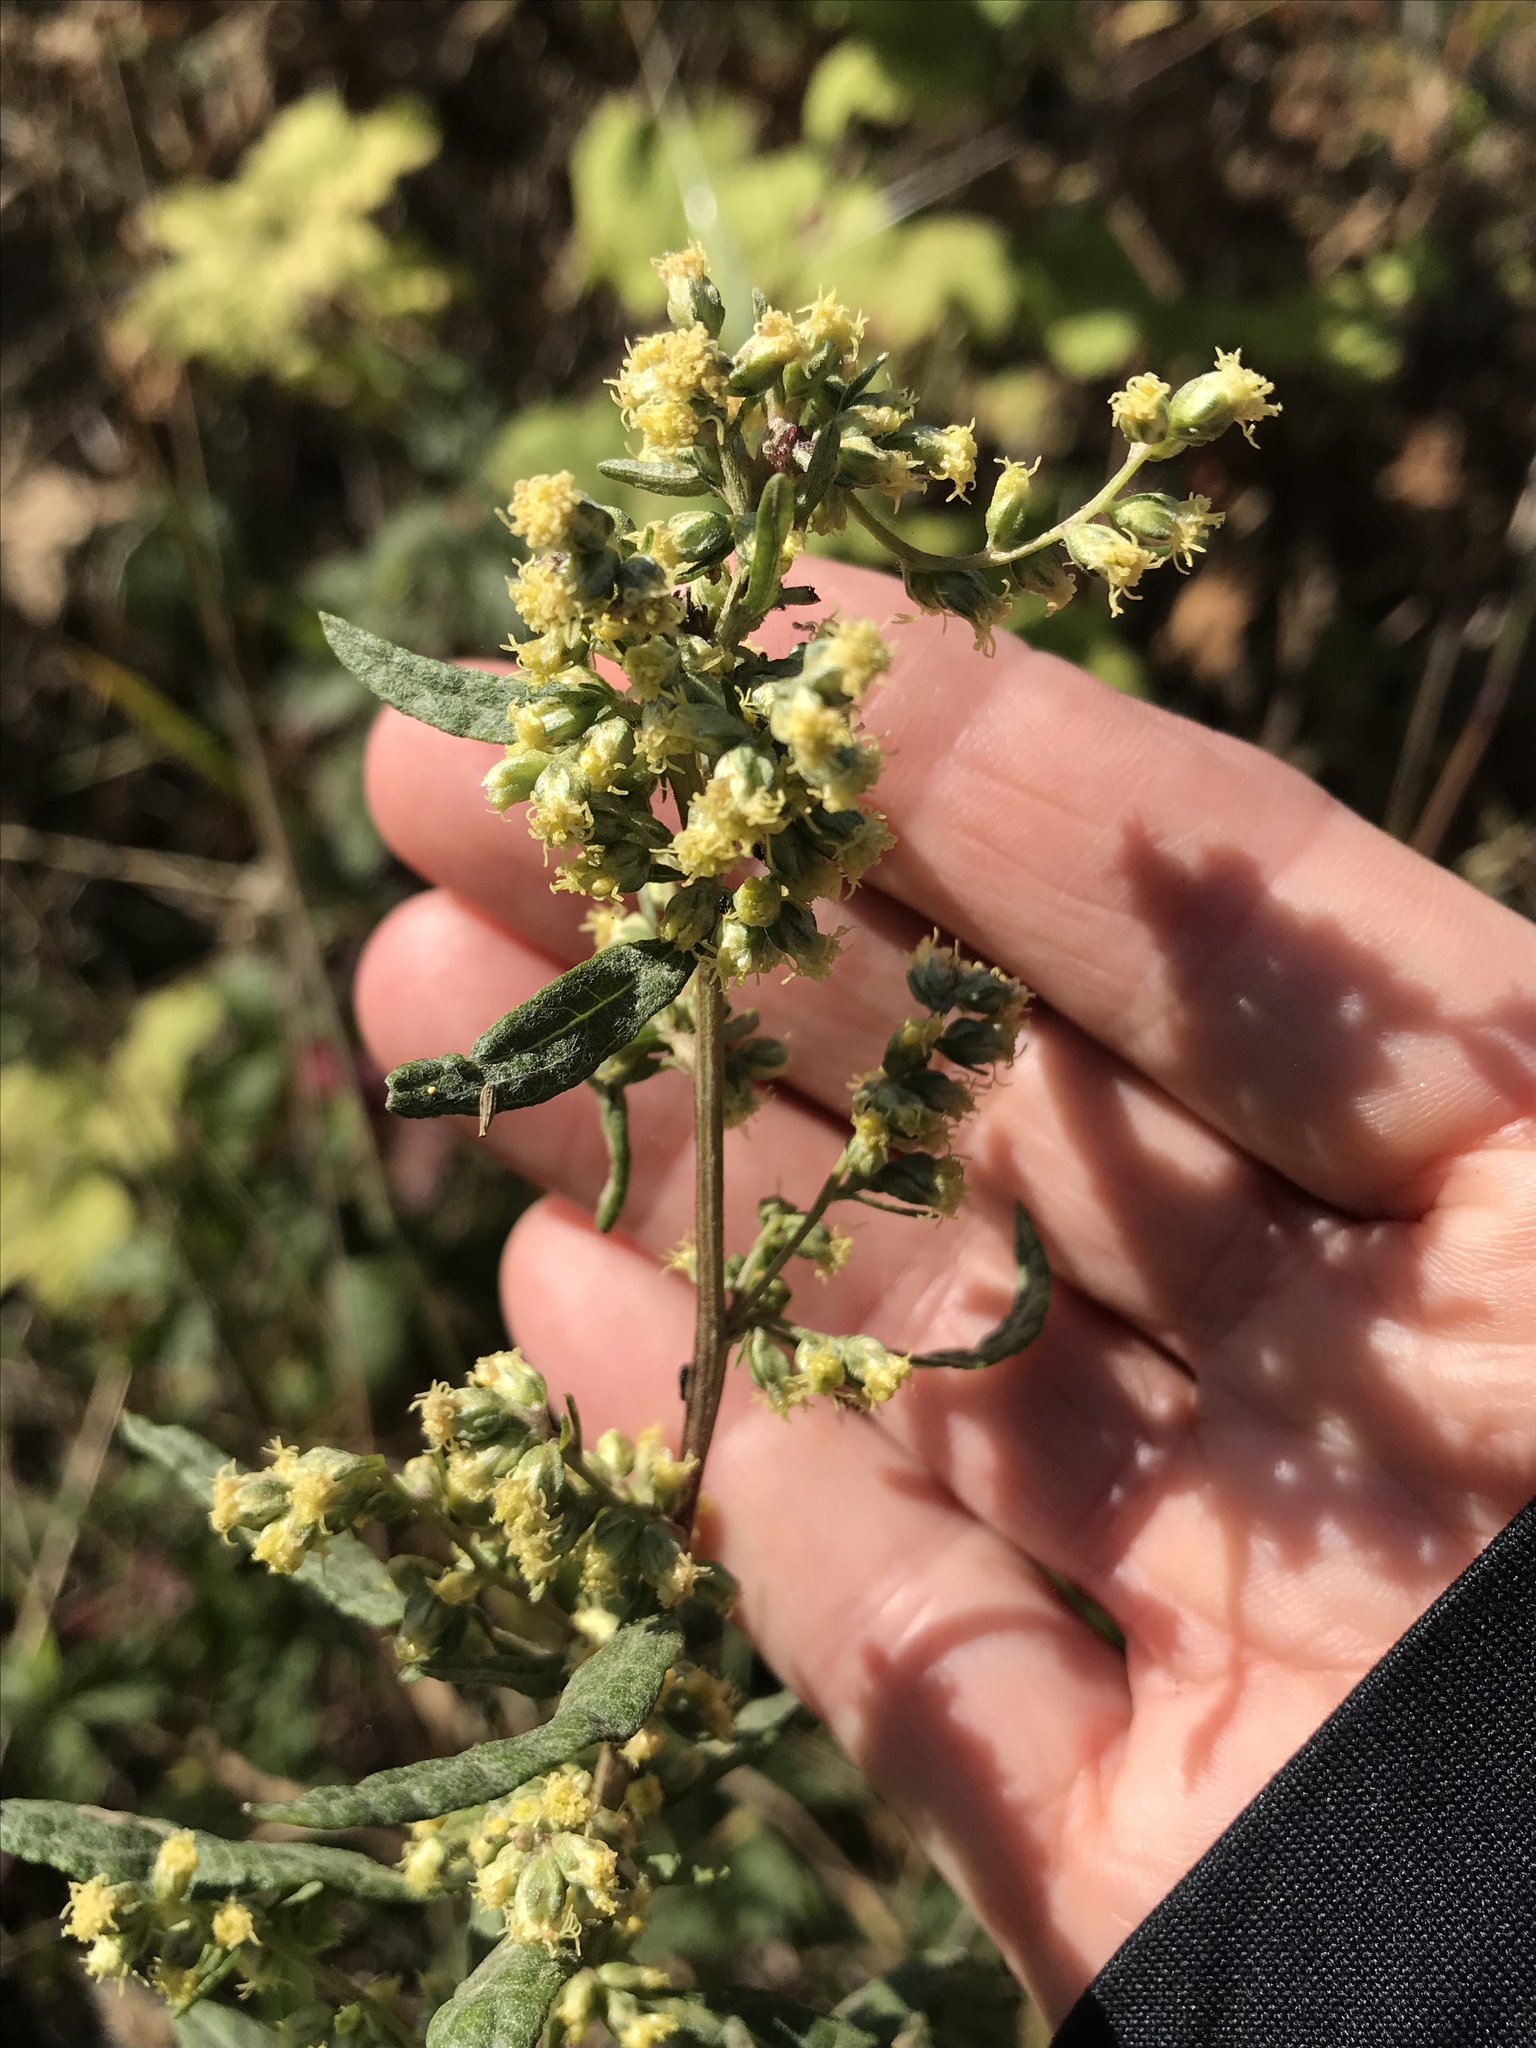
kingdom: Plantae
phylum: Tracheophyta
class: Magnoliopsida
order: Asterales
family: Asteraceae
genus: Artemisia
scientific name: Artemisia douglasiana
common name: Northwest mugwort
